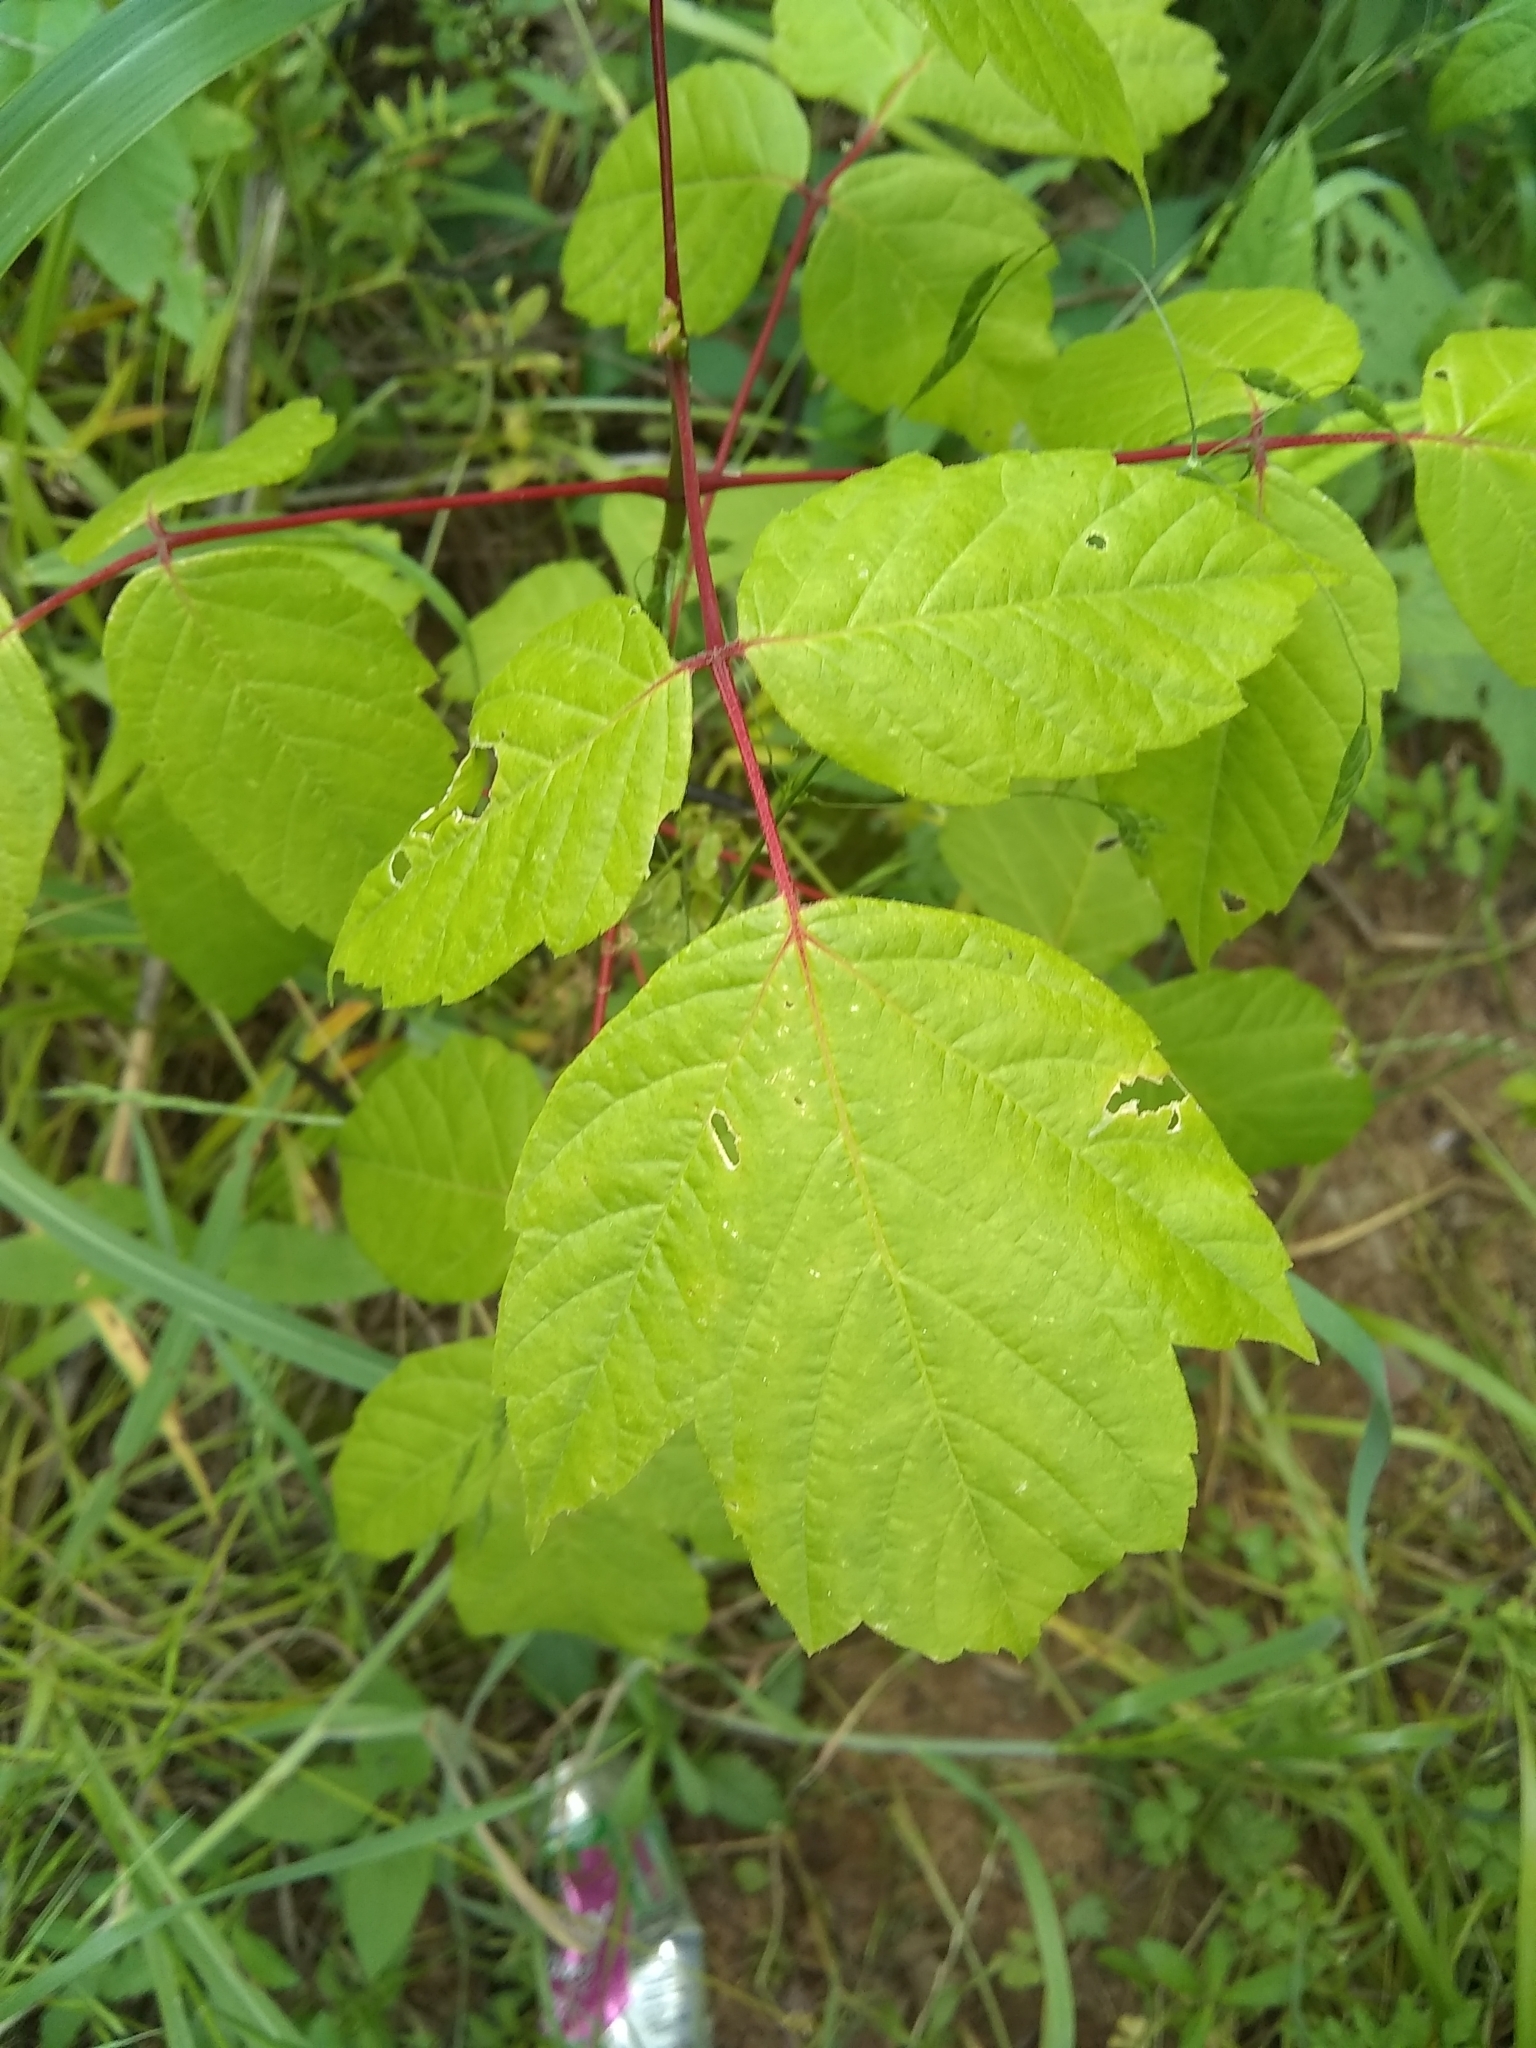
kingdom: Plantae
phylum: Tracheophyta
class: Magnoliopsida
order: Sapindales
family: Sapindaceae
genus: Acer
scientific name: Acer negundo
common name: Ashleaf maple
